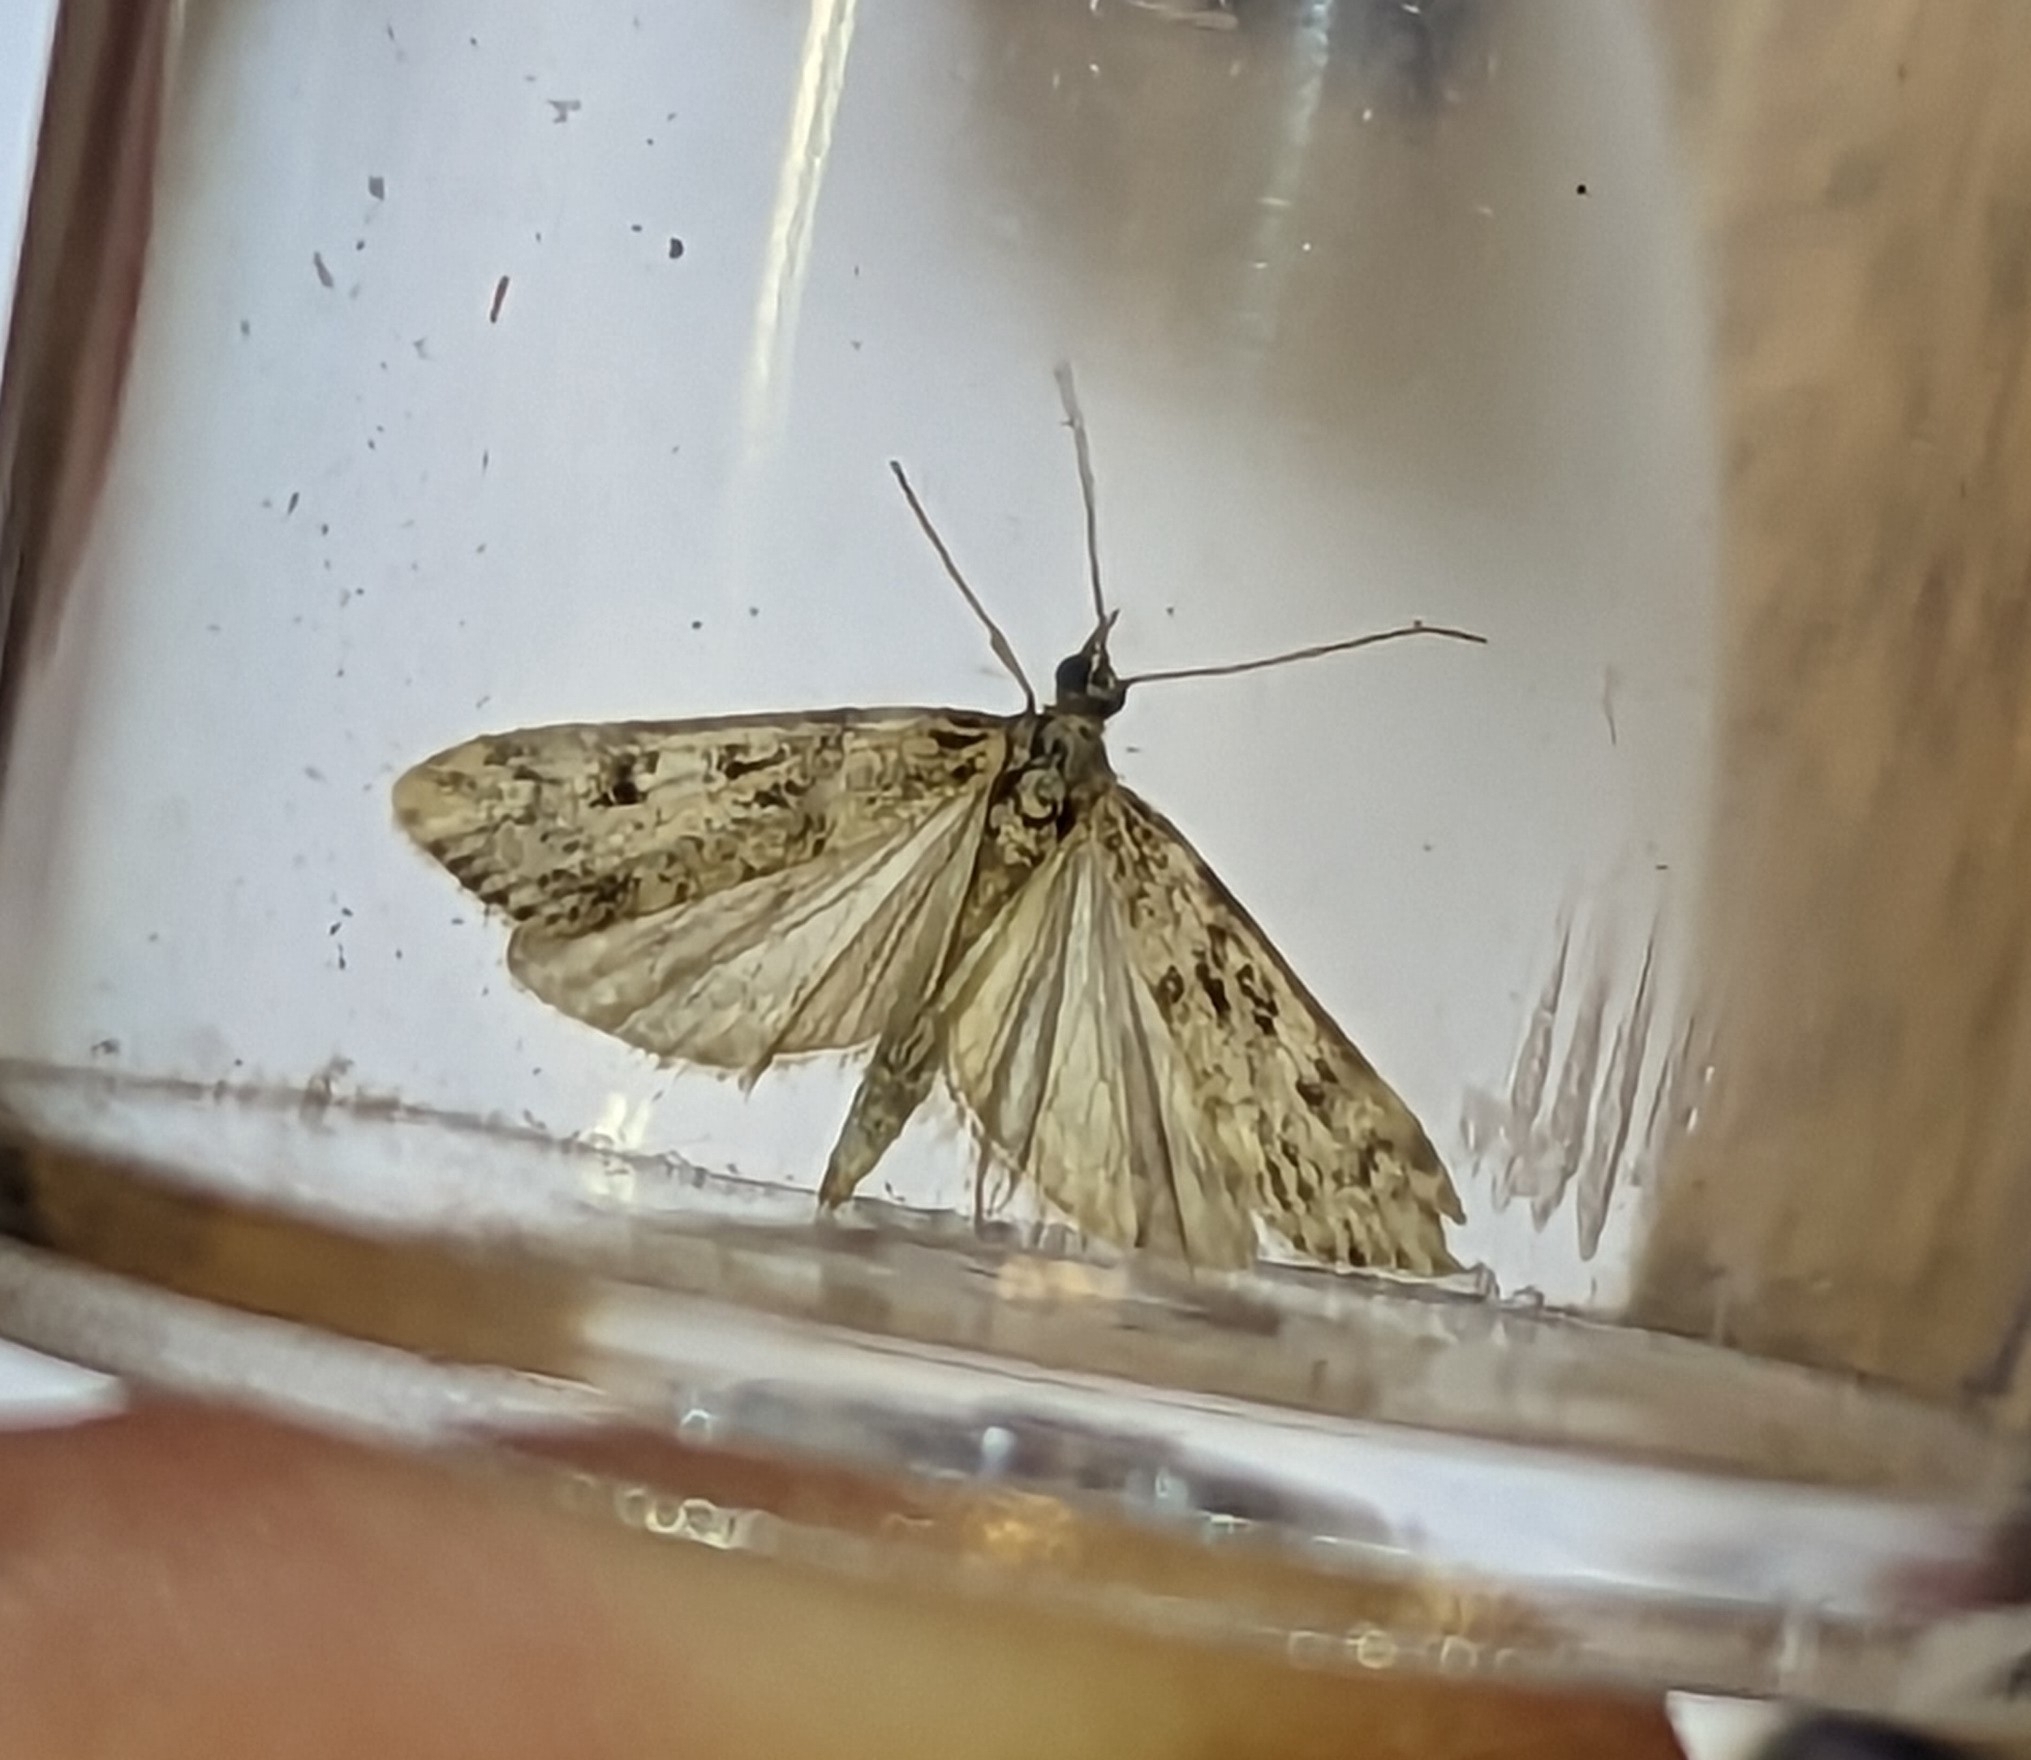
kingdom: Animalia
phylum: Arthropoda
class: Insecta
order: Lepidoptera
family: Crambidae
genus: Eudonia
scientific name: Eudonia angustea
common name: Narrow-winged grey
